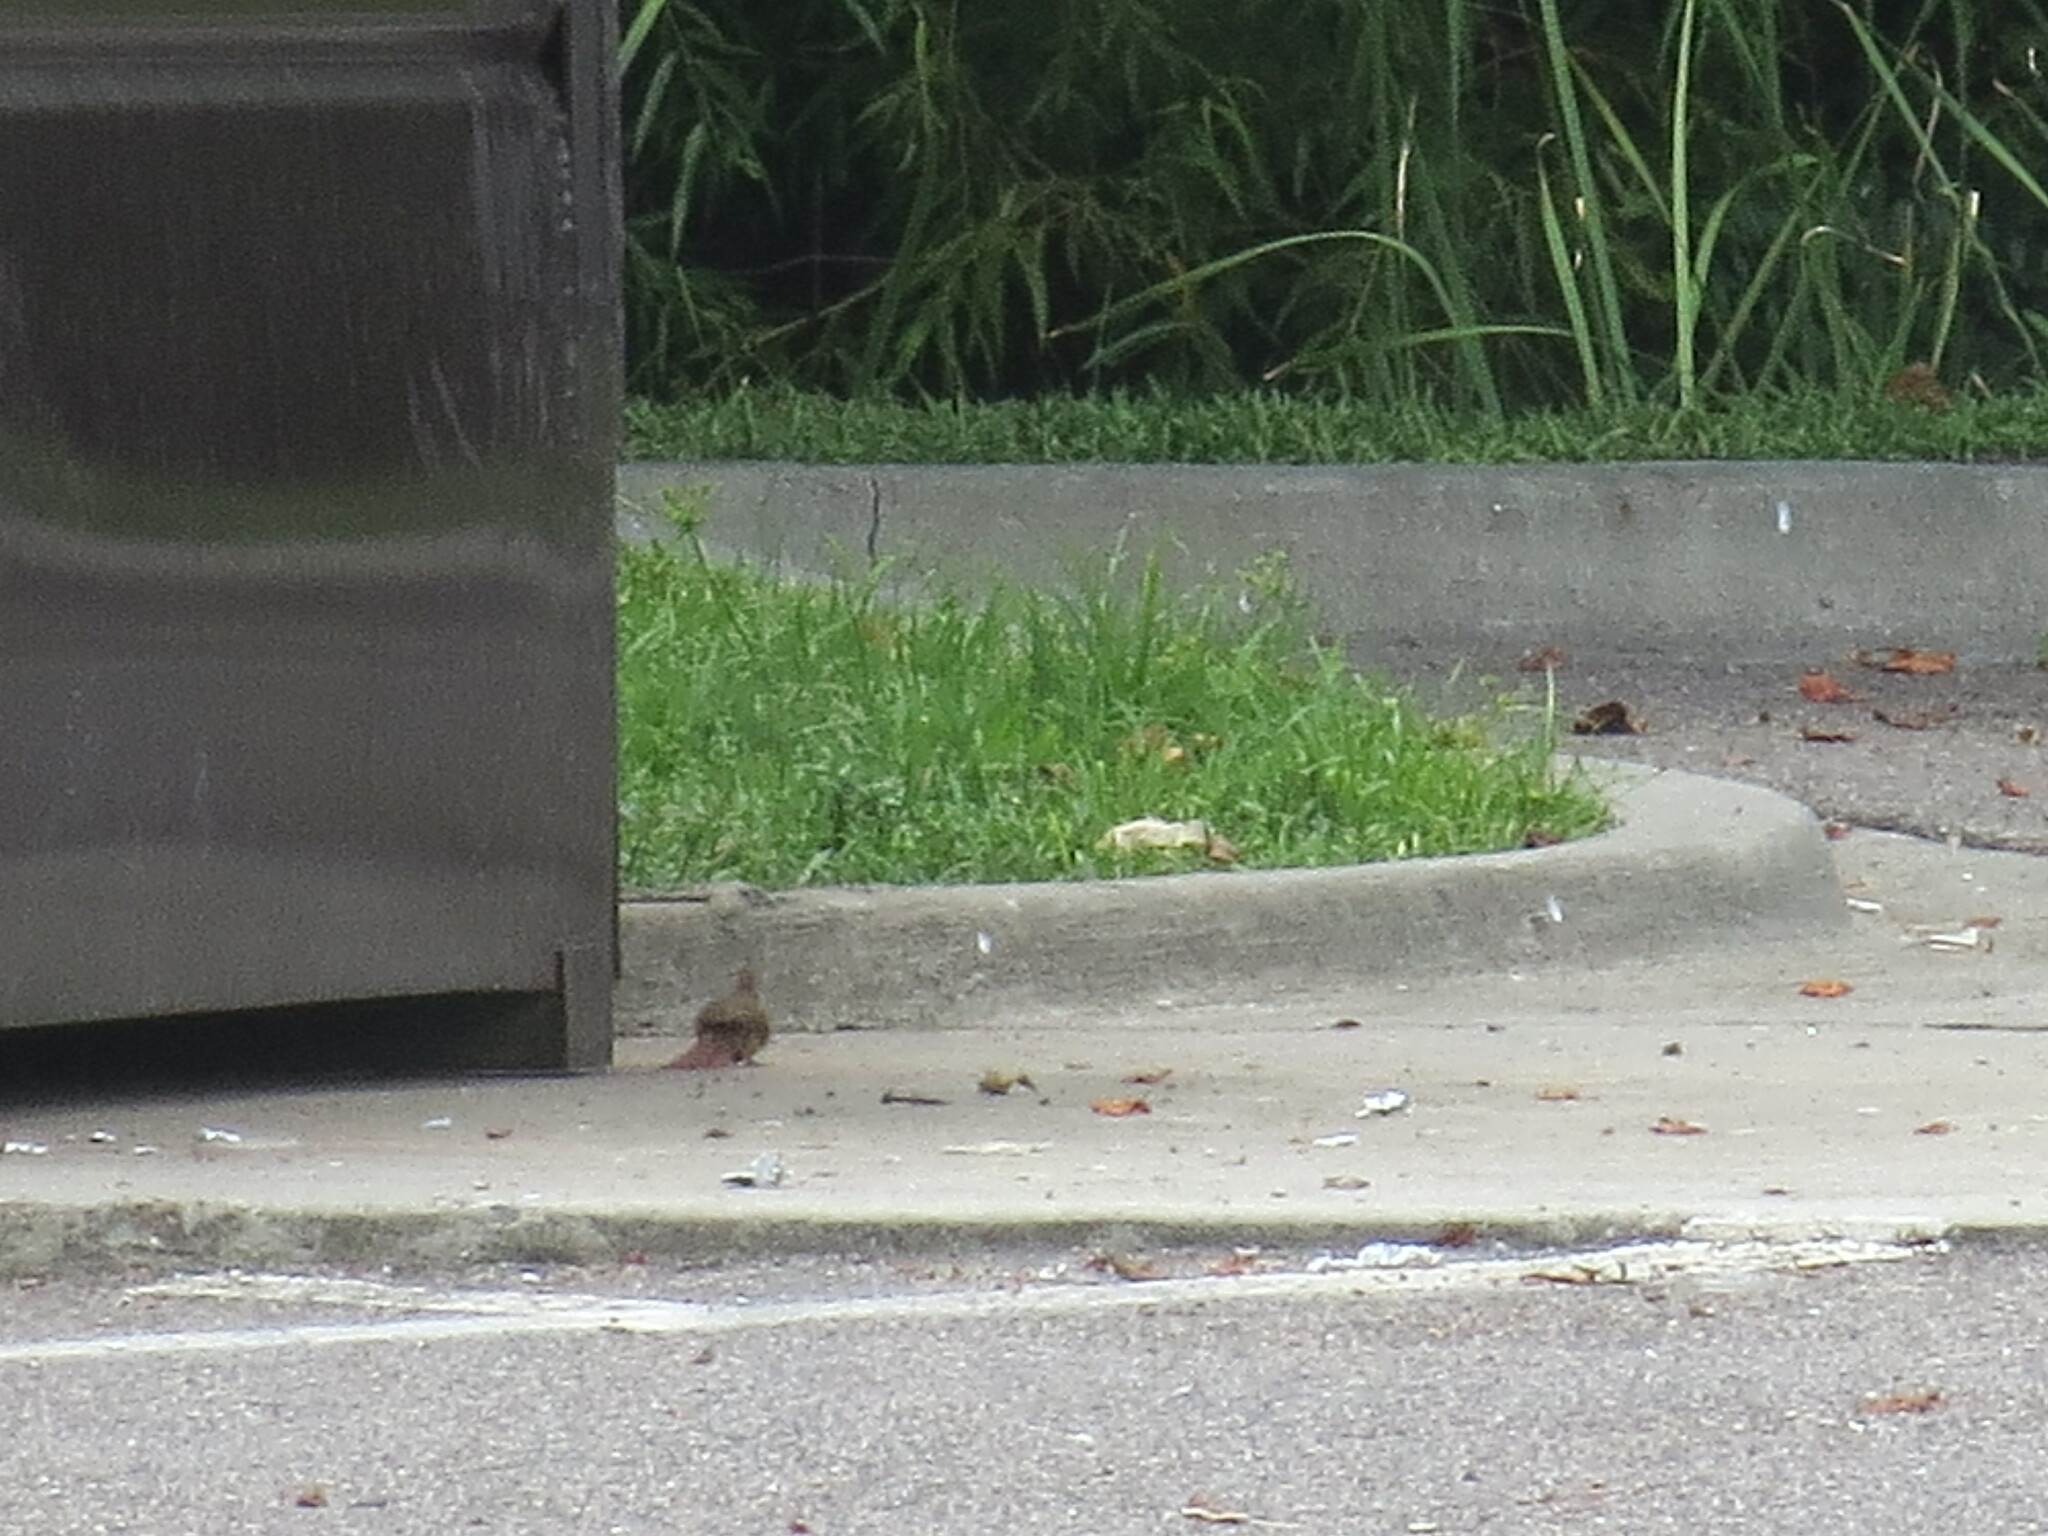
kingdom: Animalia
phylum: Chordata
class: Aves
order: Passeriformes
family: Cardinalidae
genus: Cardinalis
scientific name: Cardinalis cardinalis
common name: Northern cardinal
